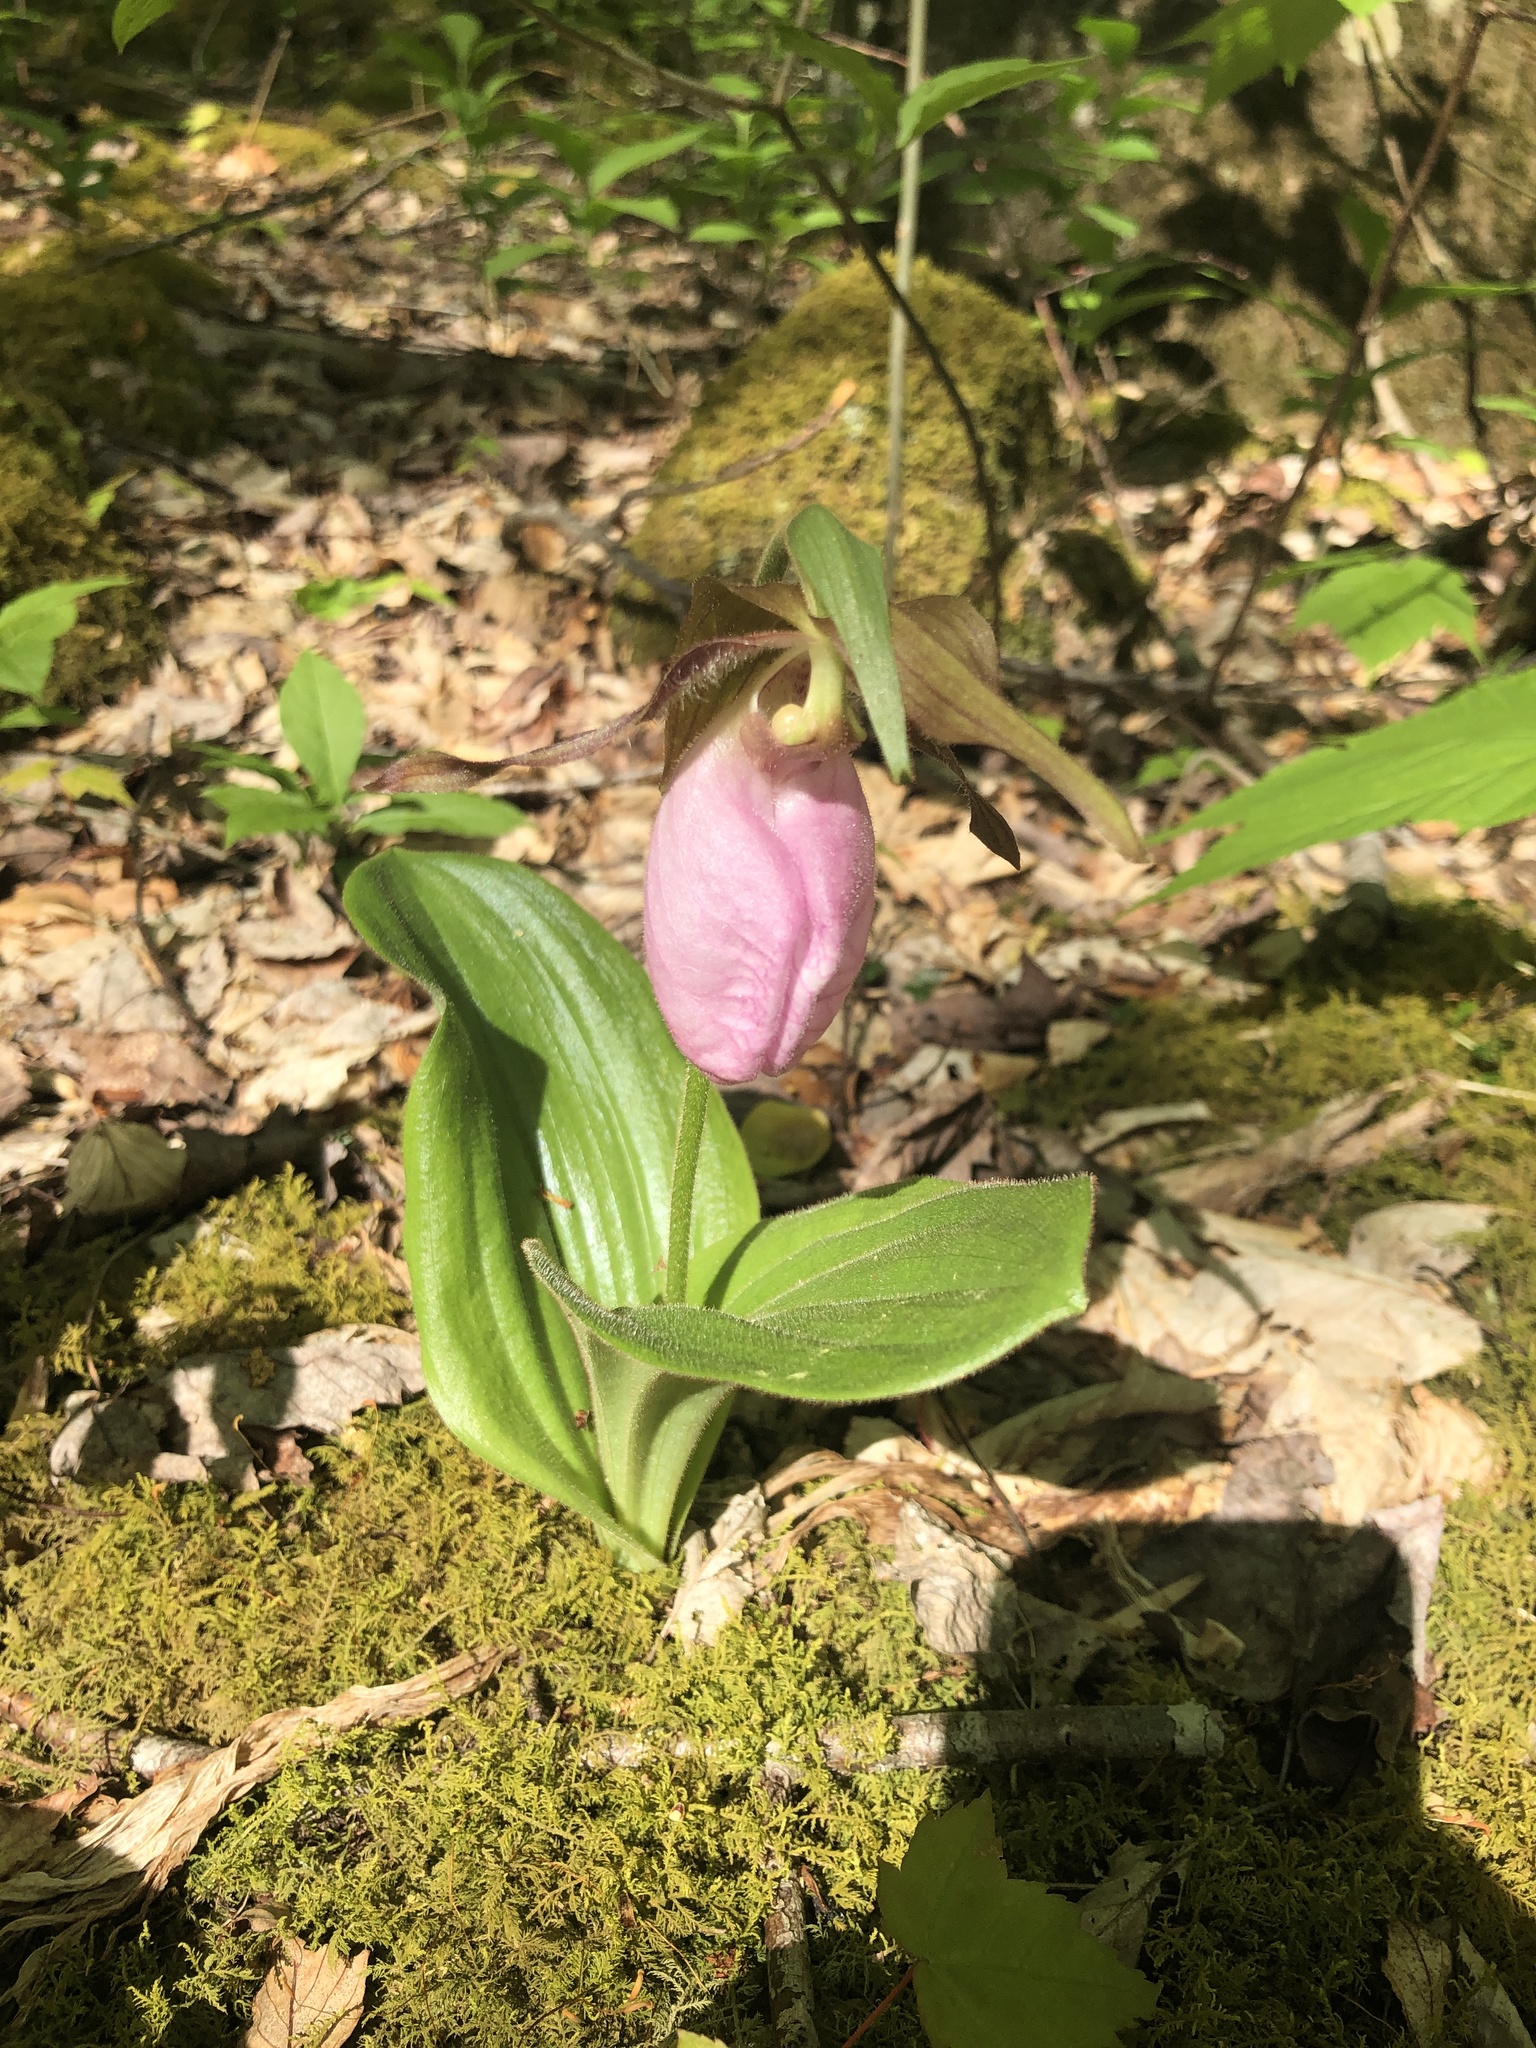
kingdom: Plantae
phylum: Tracheophyta
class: Liliopsida
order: Asparagales
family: Orchidaceae
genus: Cypripedium
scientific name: Cypripedium acaule
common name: Pink lady's-slipper
